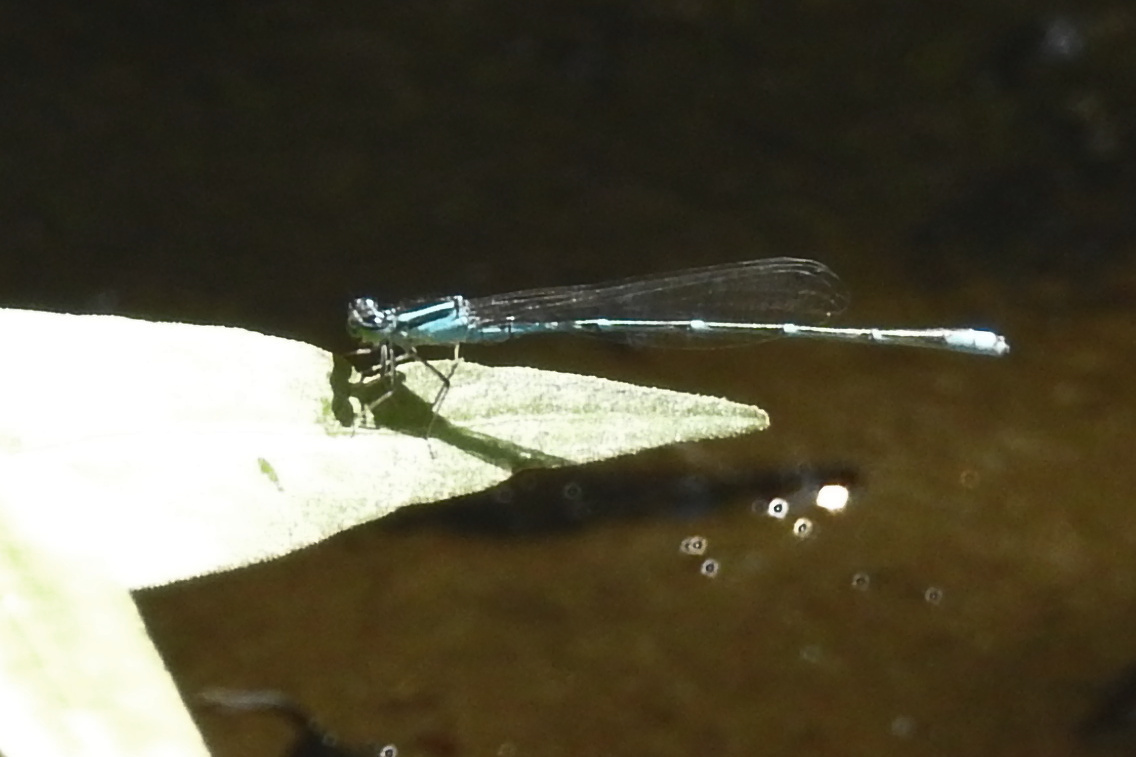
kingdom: Animalia
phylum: Arthropoda
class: Insecta
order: Odonata
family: Coenagrionidae
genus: Enallagma
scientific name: Enallagma exsulans
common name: Stream bluet
